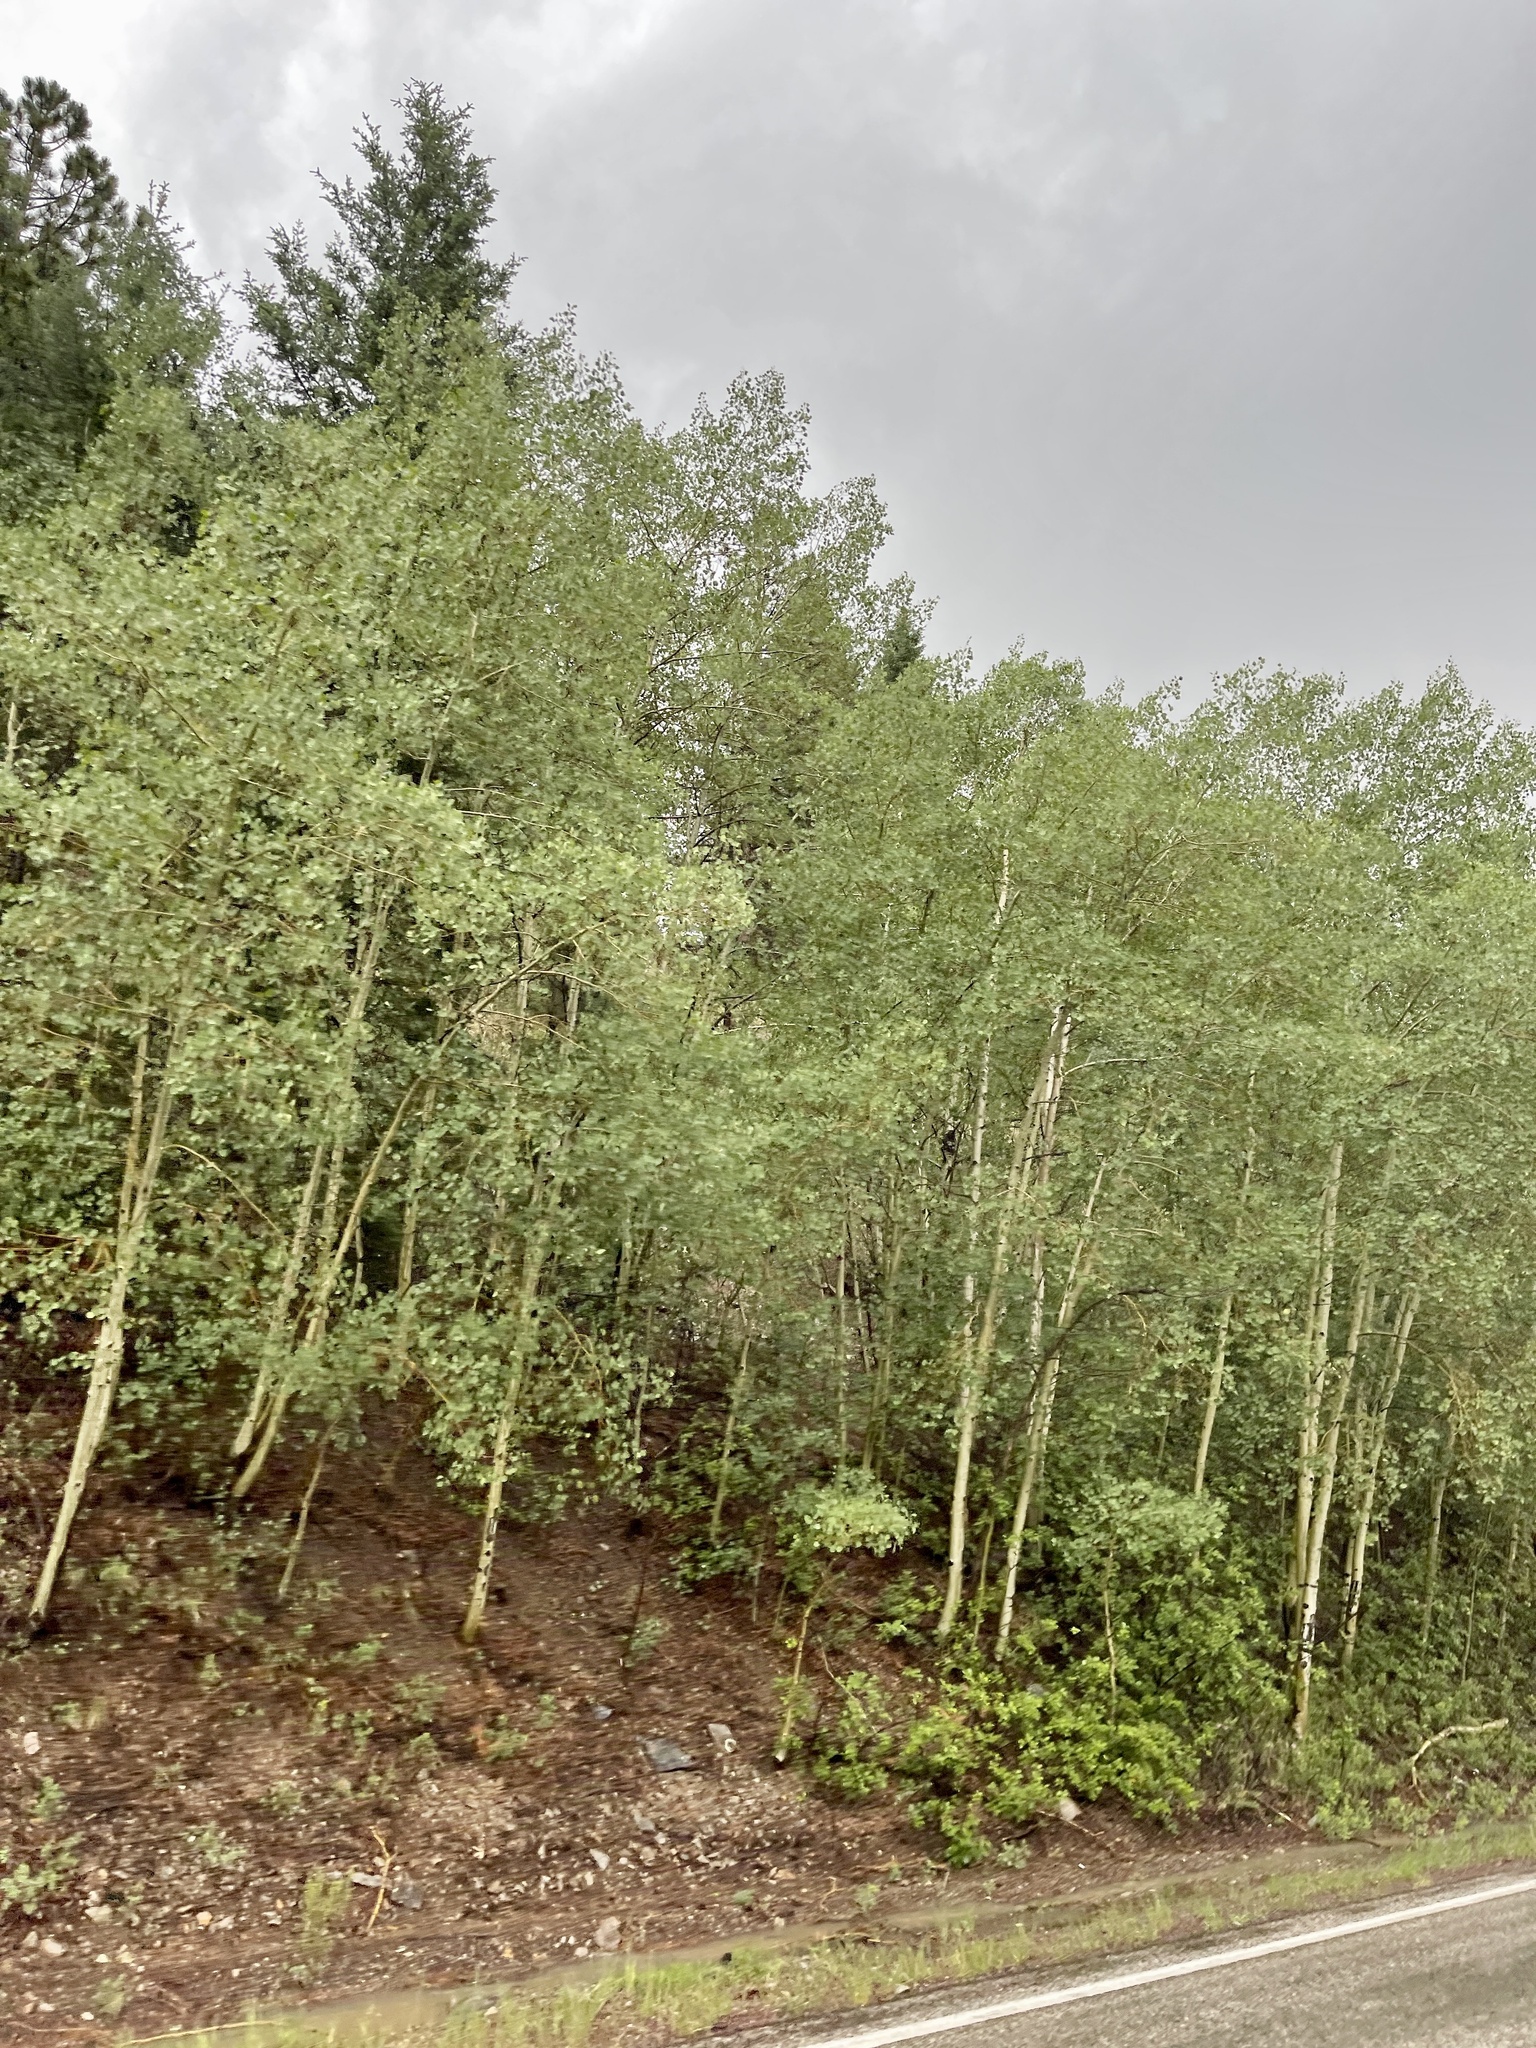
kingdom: Plantae
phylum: Tracheophyta
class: Magnoliopsida
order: Malpighiales
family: Salicaceae
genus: Populus
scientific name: Populus tremuloides
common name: Quaking aspen
